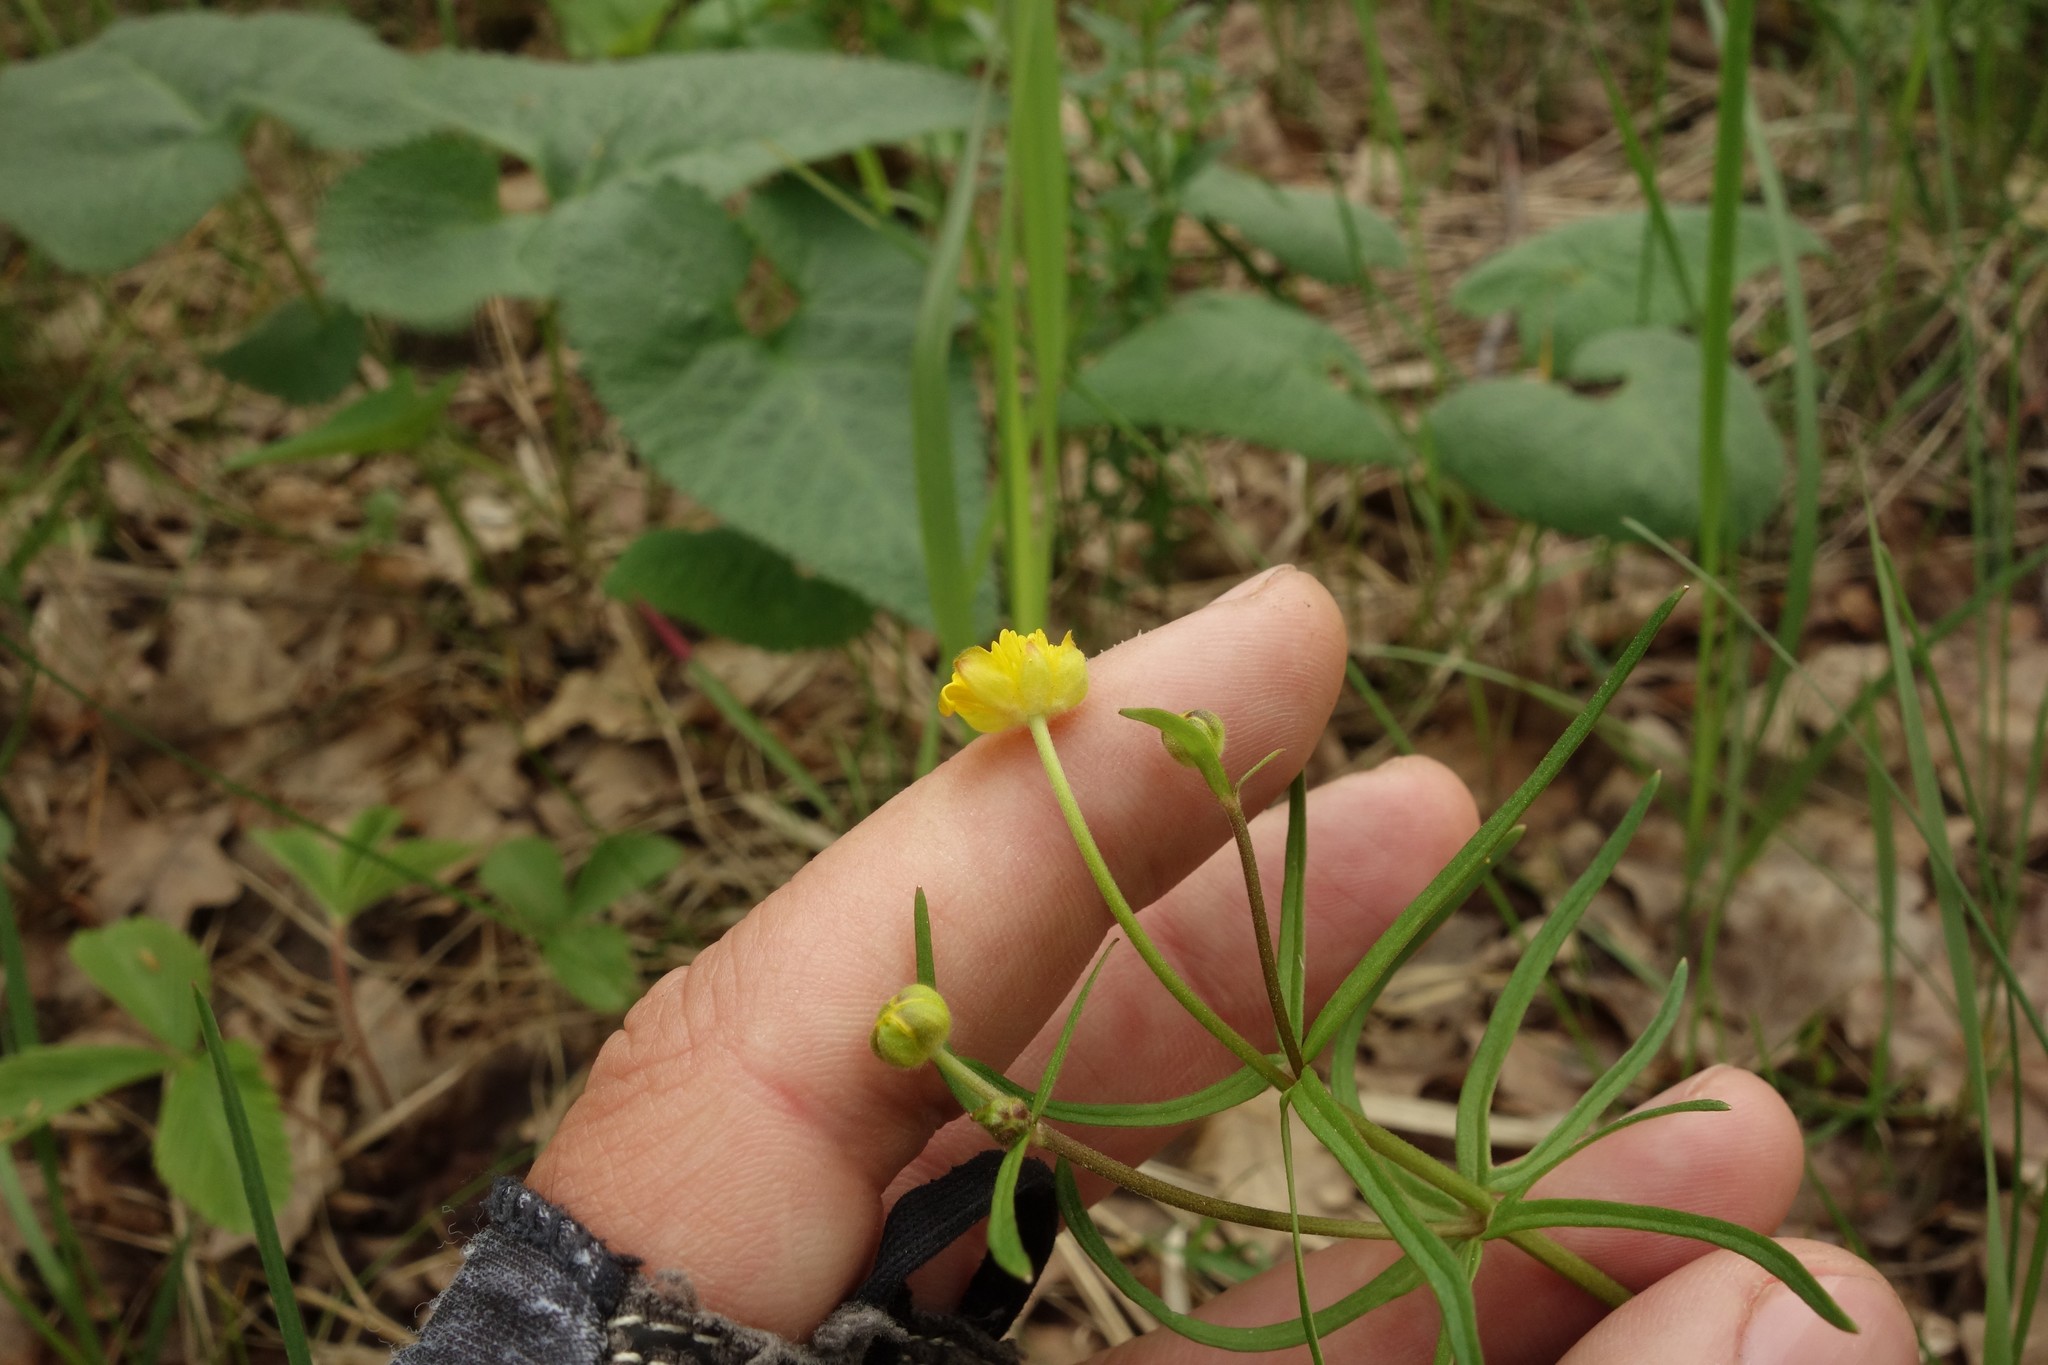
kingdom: Plantae
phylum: Tracheophyta
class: Magnoliopsida
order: Ranunculales
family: Ranunculaceae
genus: Ranunculus
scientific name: Ranunculus auricomus
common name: Goldilocks buttercup
